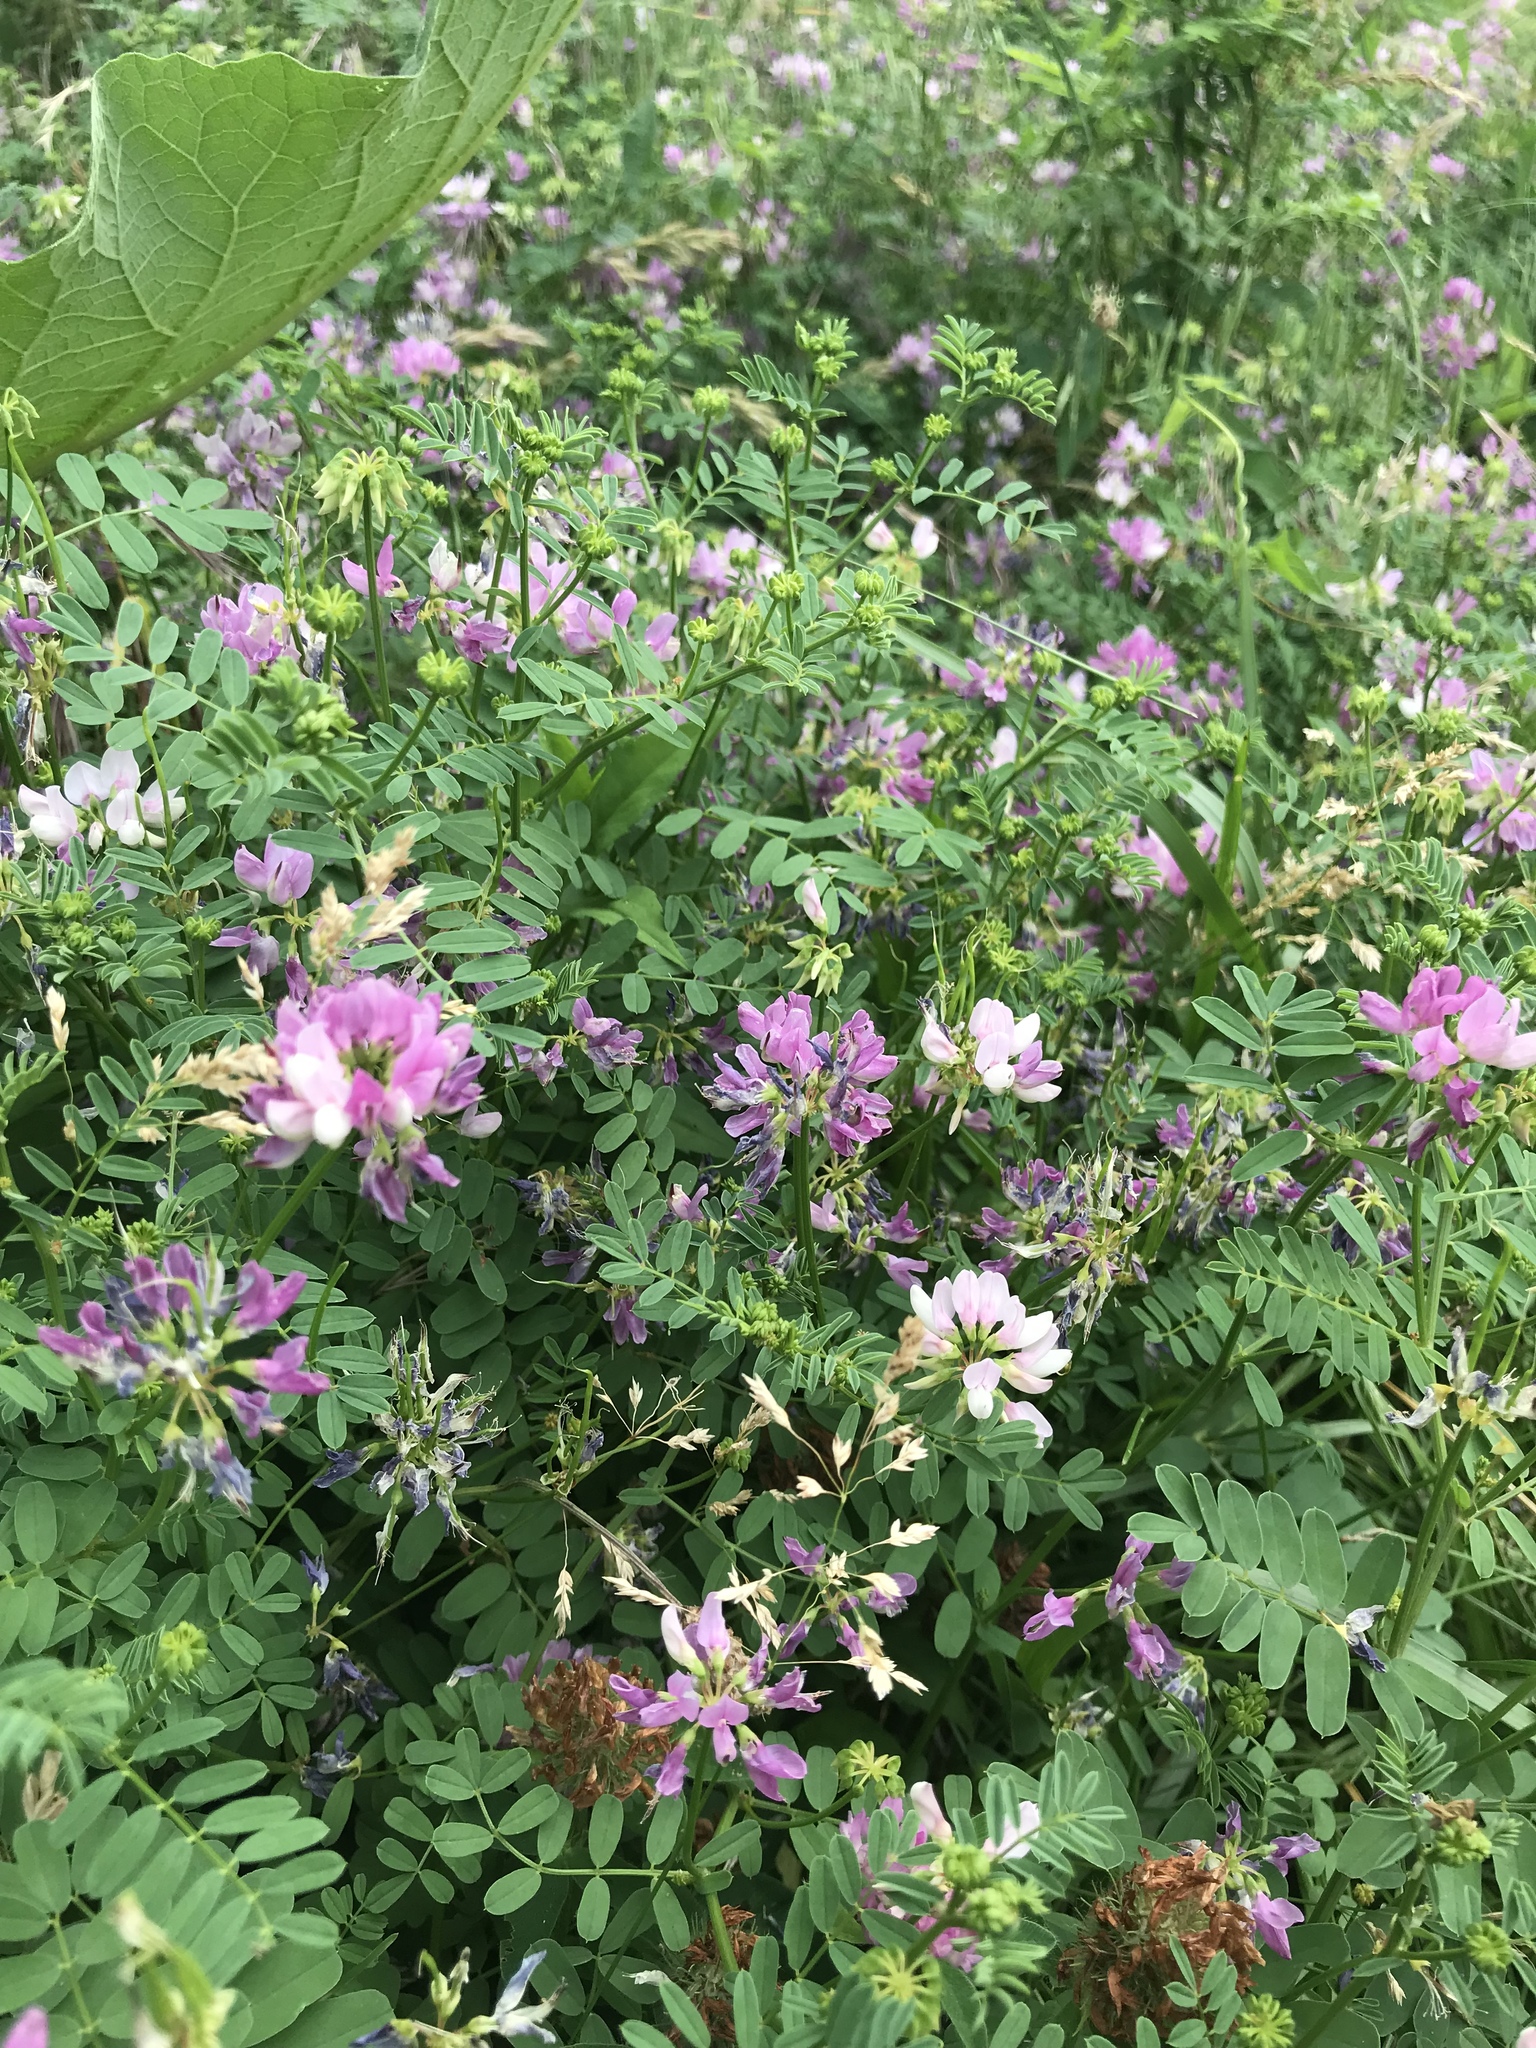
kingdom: Plantae
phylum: Tracheophyta
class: Magnoliopsida
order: Fabales
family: Fabaceae
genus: Coronilla
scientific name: Coronilla varia
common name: Crownvetch
